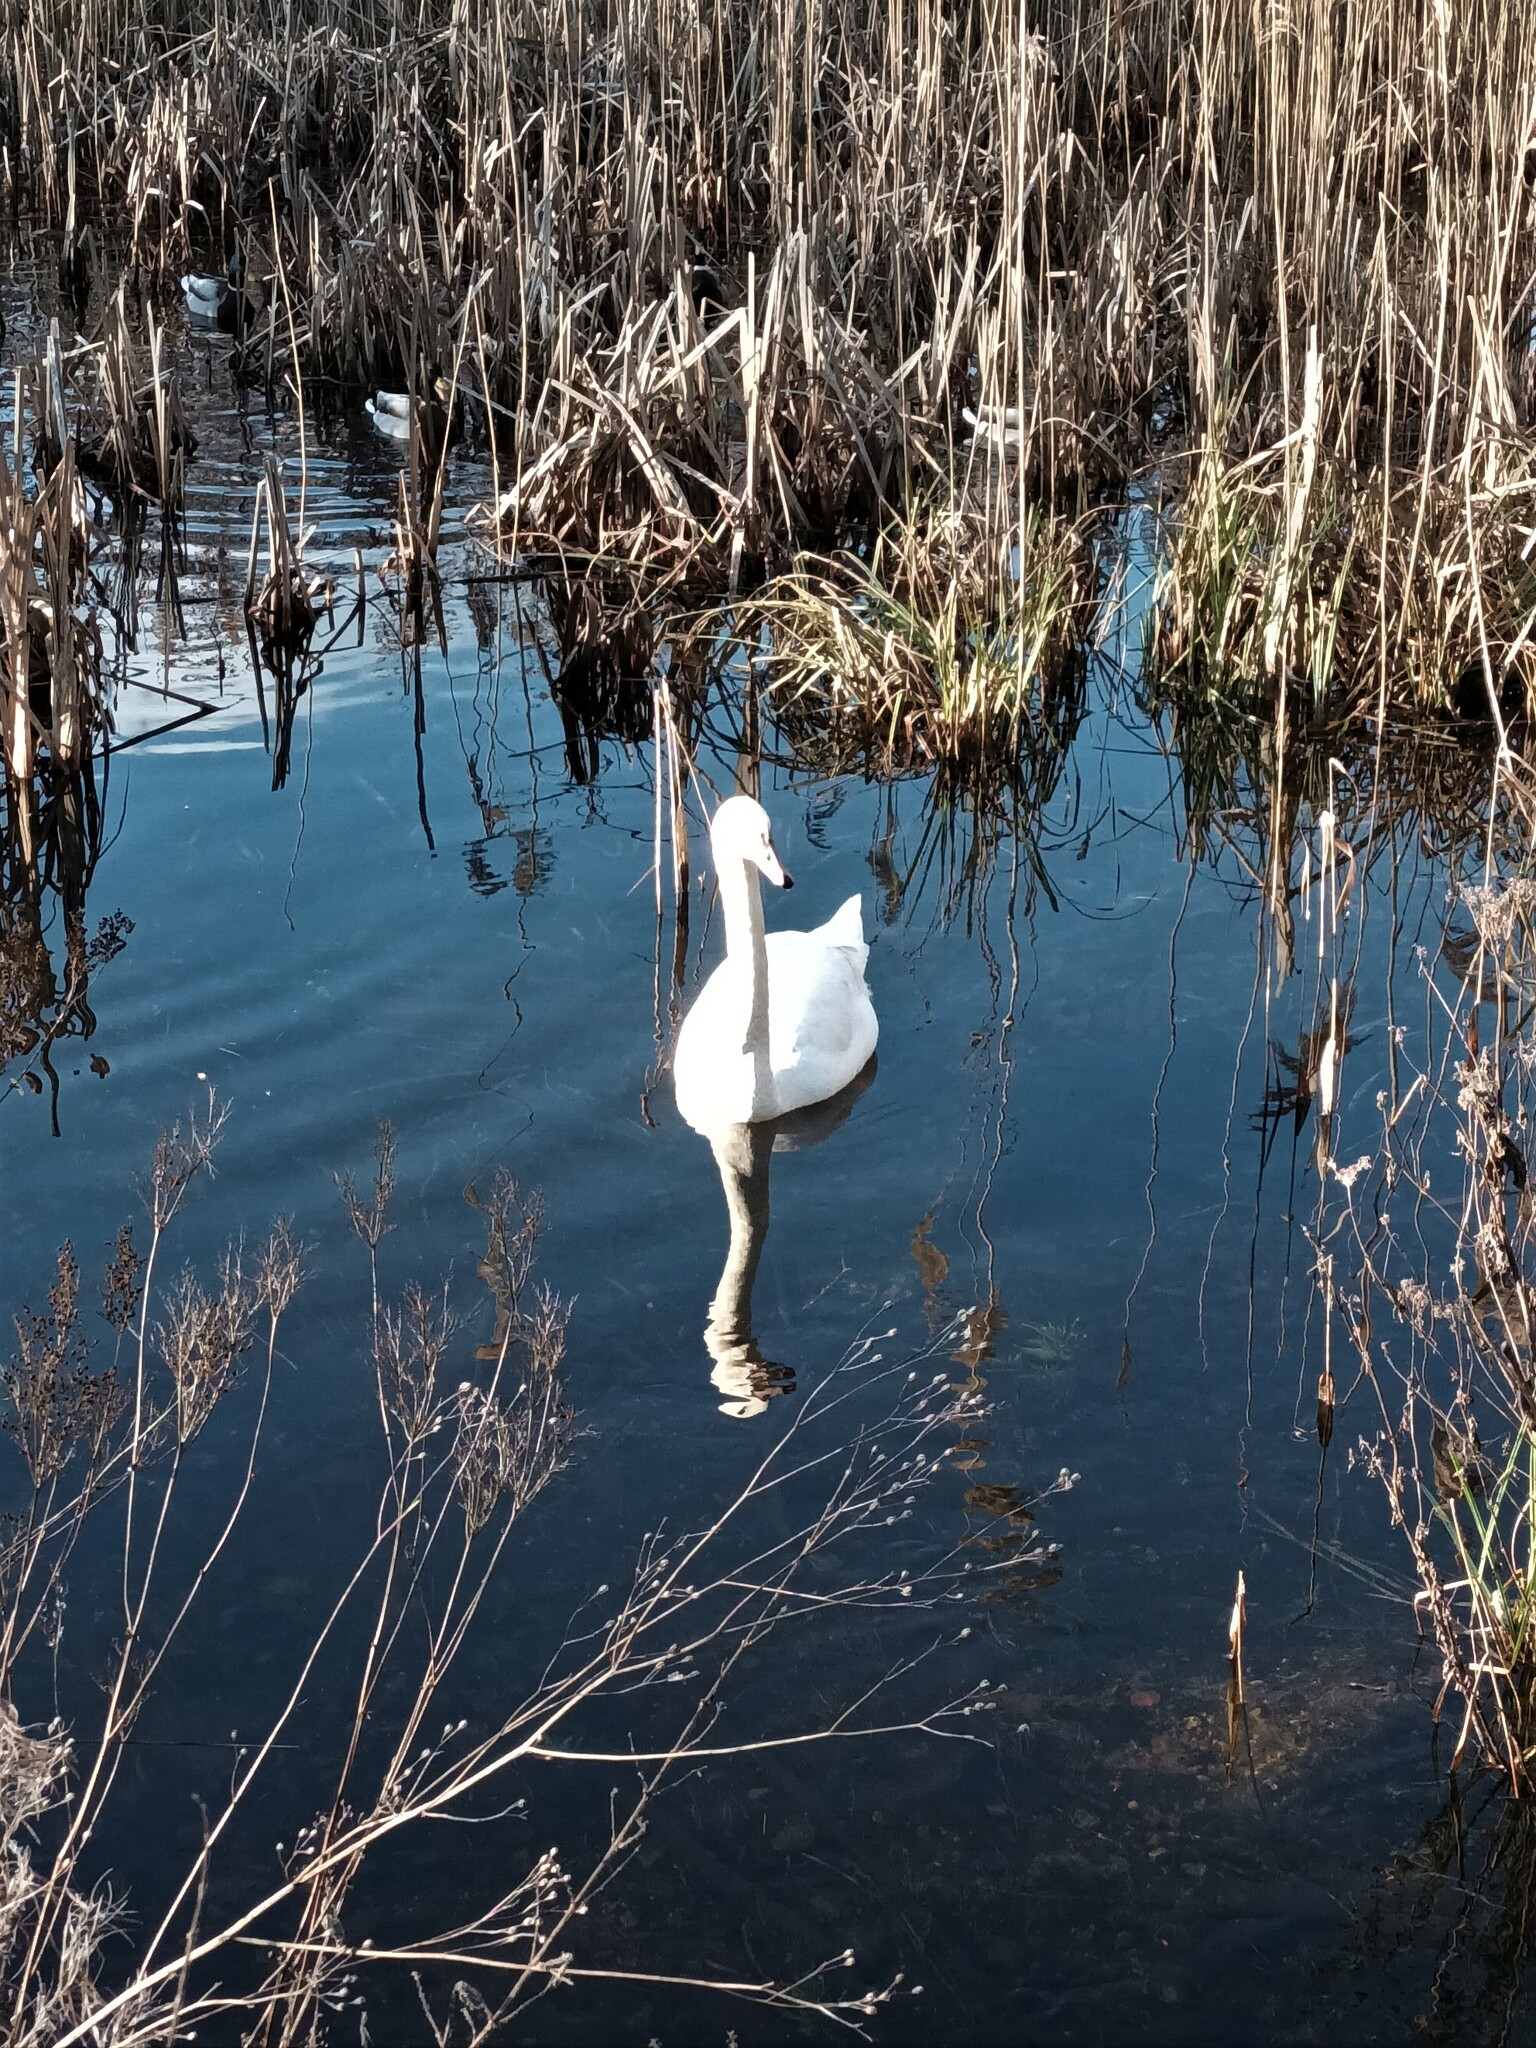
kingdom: Animalia
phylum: Chordata
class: Aves
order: Anseriformes
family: Anatidae
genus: Cygnus
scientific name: Cygnus olor
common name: Mute swan
